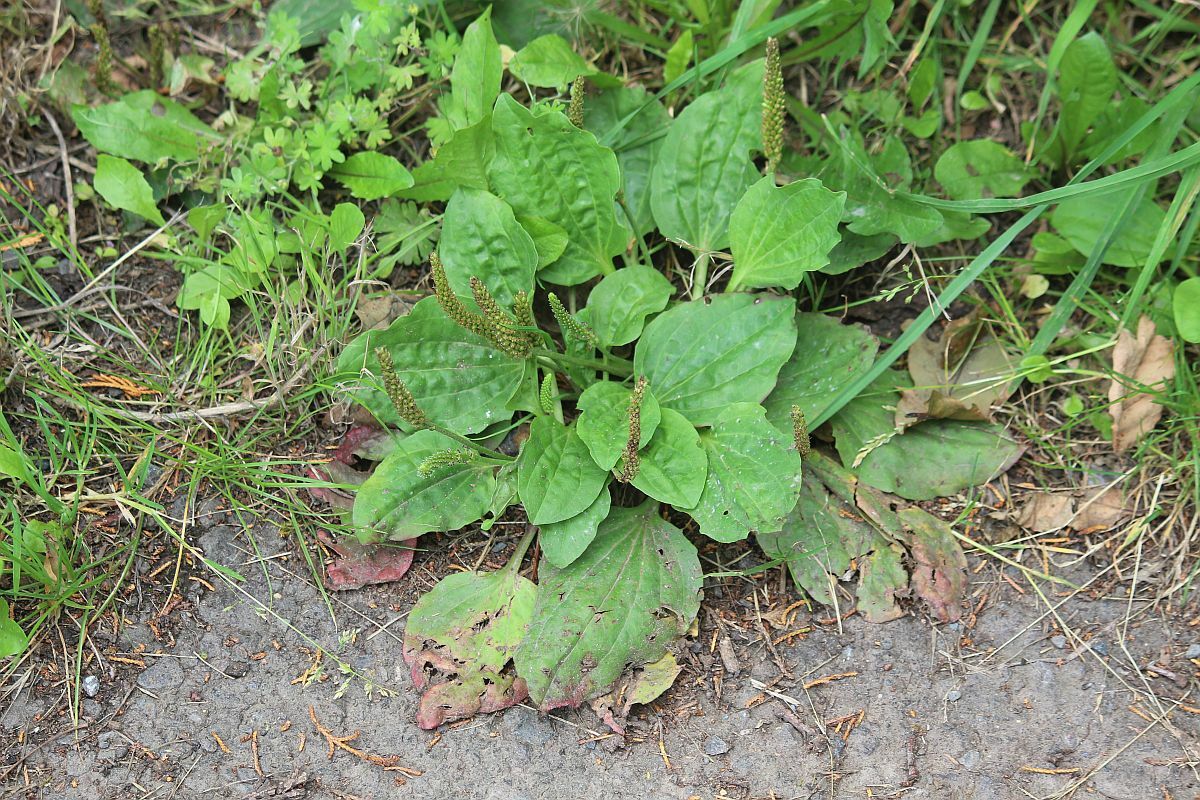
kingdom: Plantae
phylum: Tracheophyta
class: Magnoliopsida
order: Lamiales
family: Plantaginaceae
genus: Plantago
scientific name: Plantago major
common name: Common plantain
